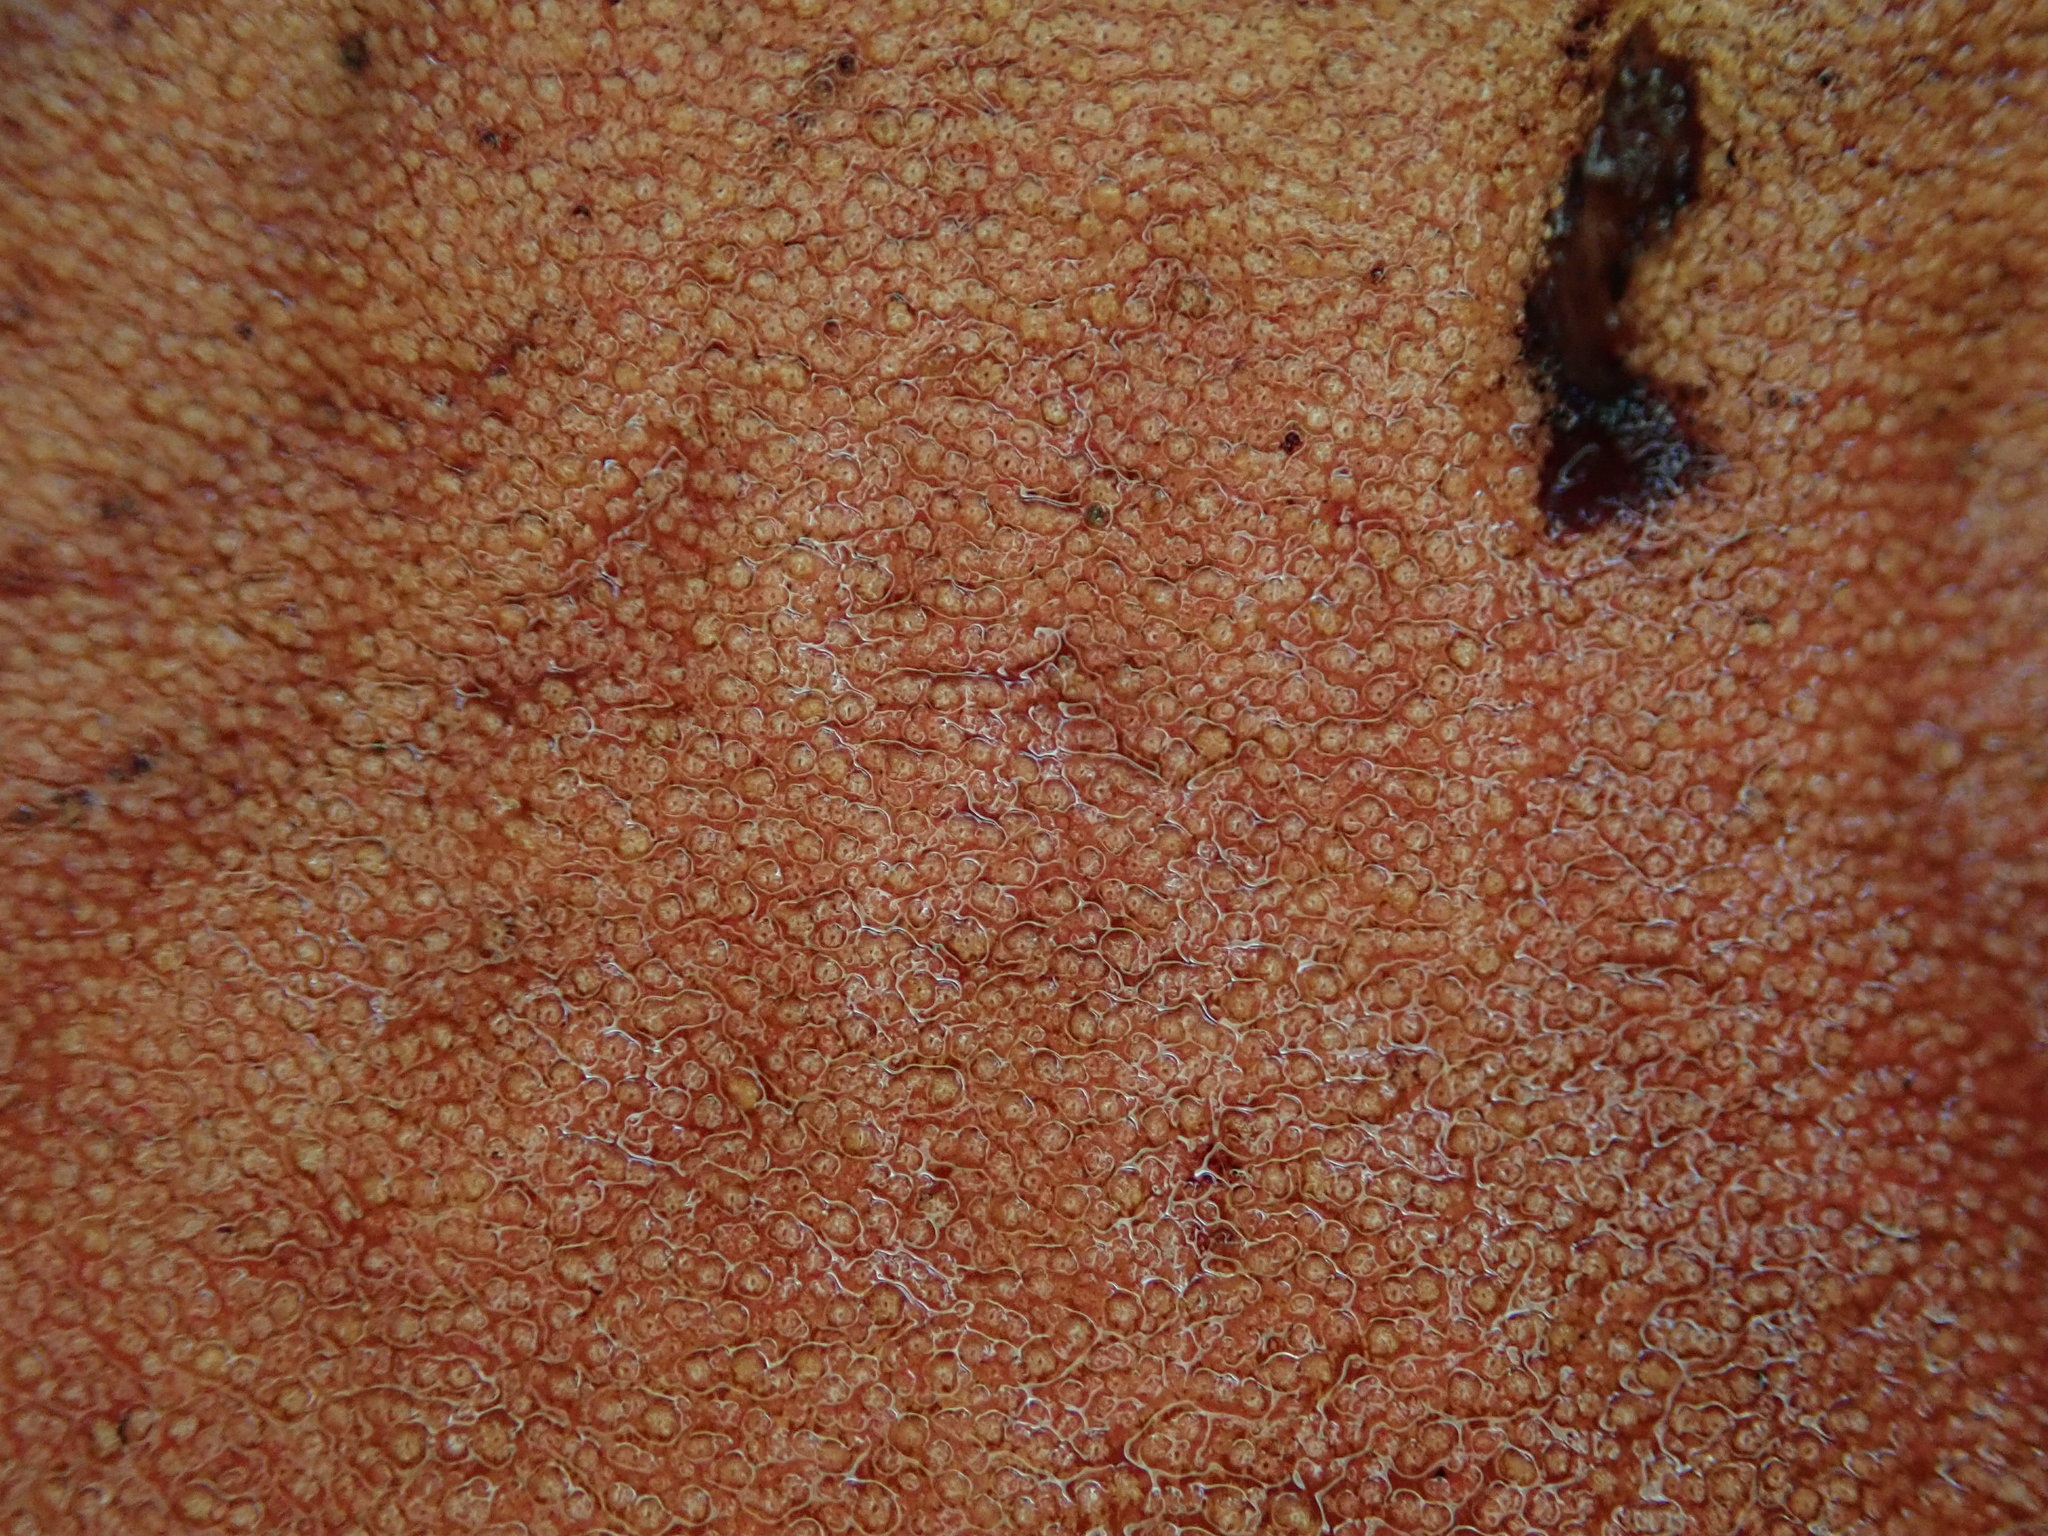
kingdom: Fungi
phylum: Basidiomycota
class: Agaricomycetes
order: Agaricales
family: Fistulinaceae
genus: Fistulina
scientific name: Fistulina hepatica
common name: Beef-steak fungus
